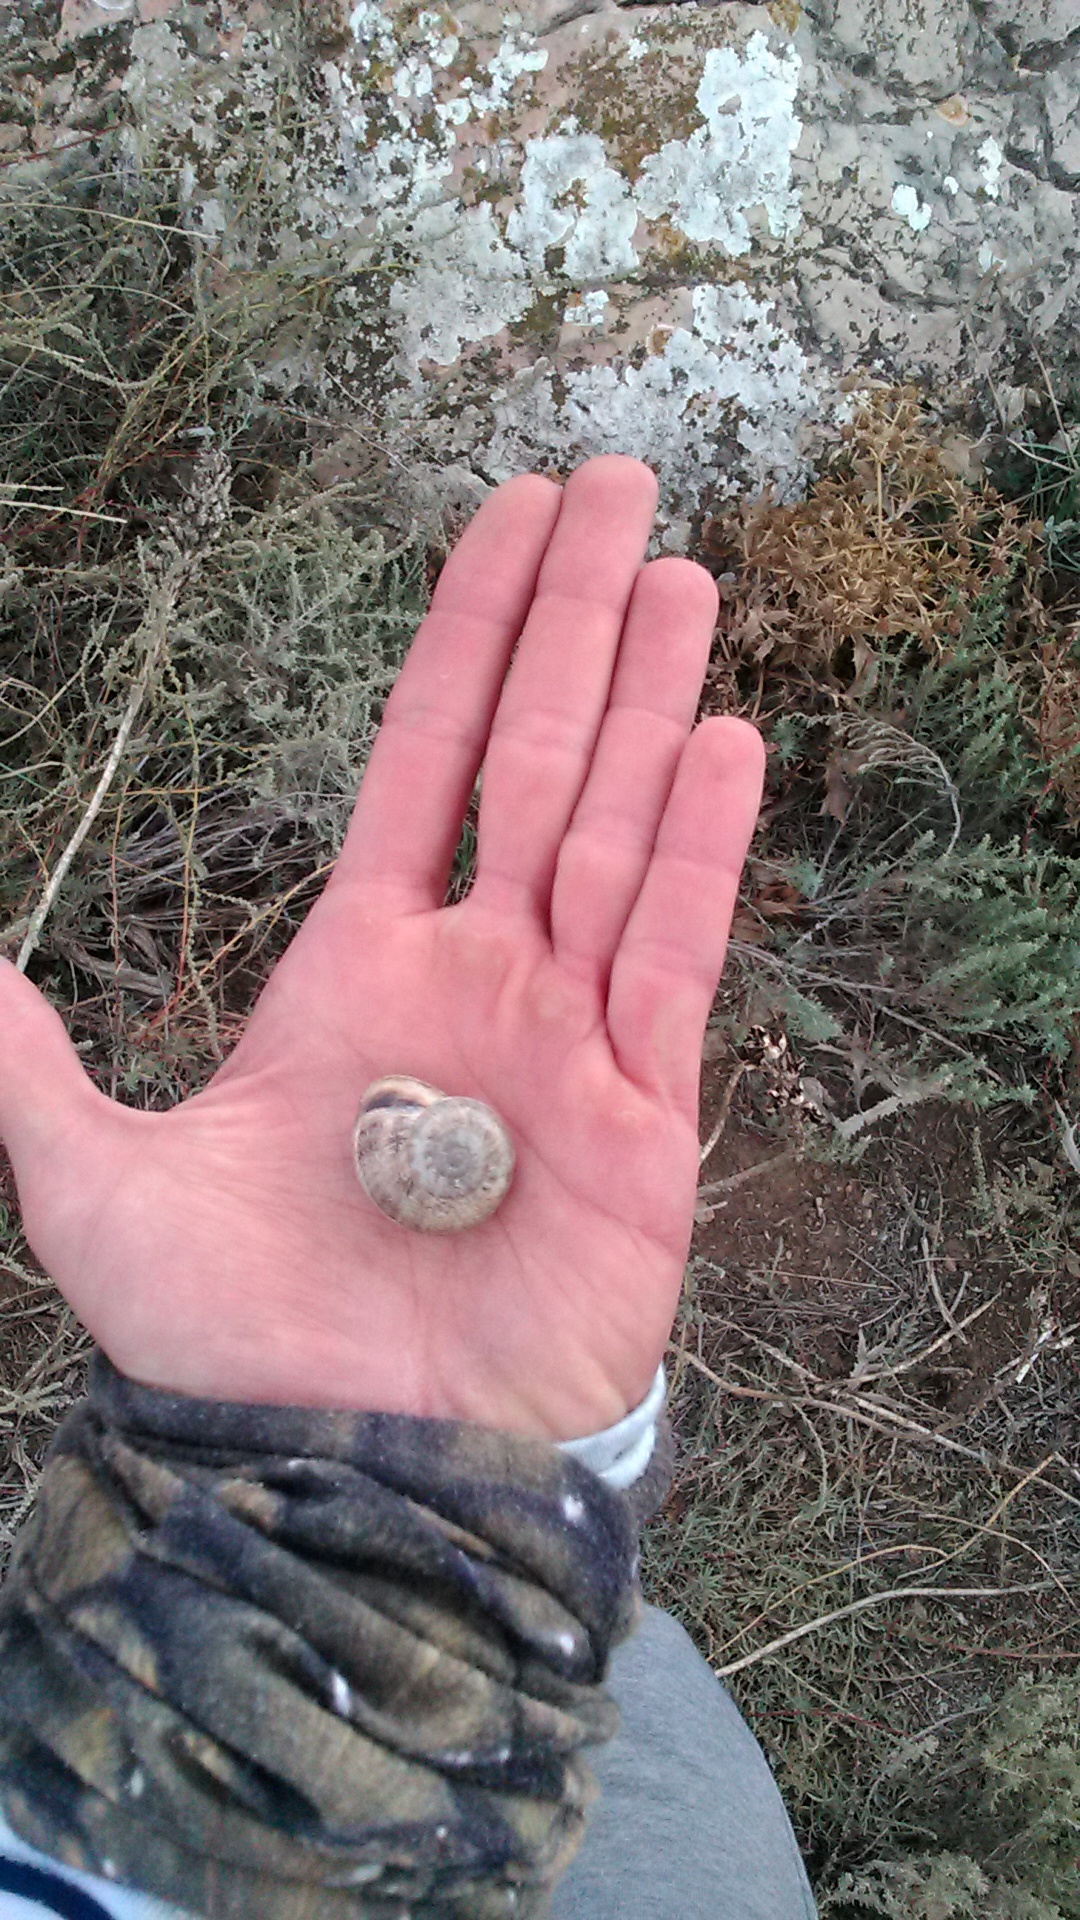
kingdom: Animalia
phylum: Mollusca
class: Gastropoda
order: Stylommatophora
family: Helicidae
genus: Eobania
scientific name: Eobania vermiculata
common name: Chocolateband snail
